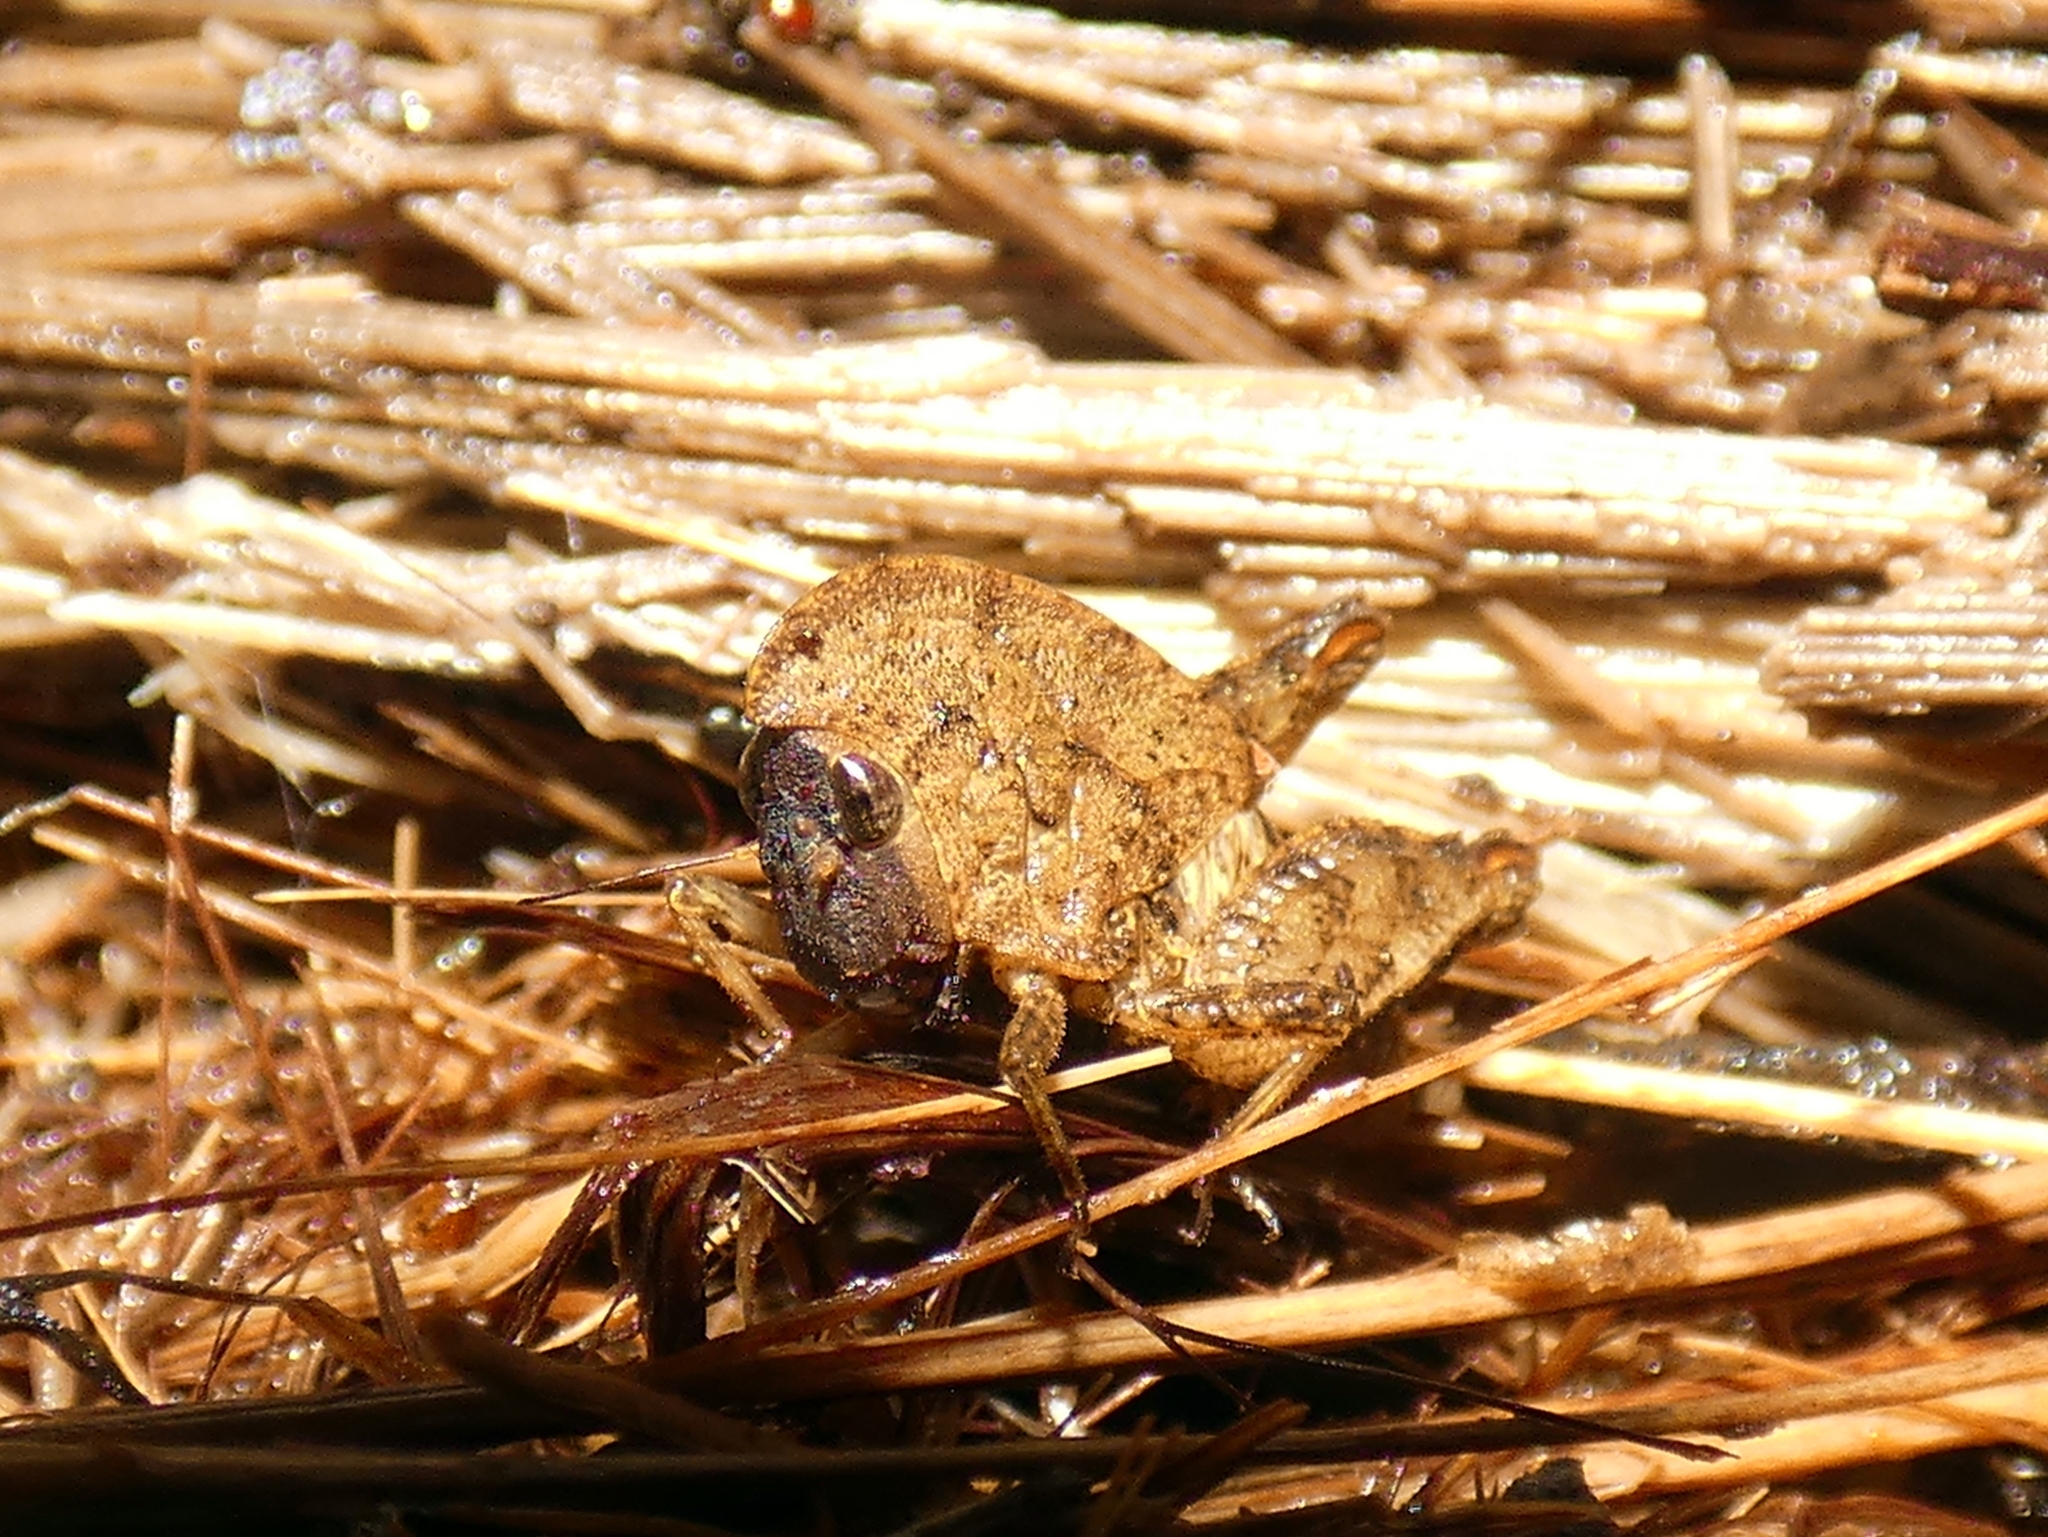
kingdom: Animalia
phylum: Arthropoda
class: Insecta
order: Orthoptera
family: Tetrigidae
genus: Selivinga
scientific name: Selivinga tribulata
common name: Tribulation helmed groundhopper
